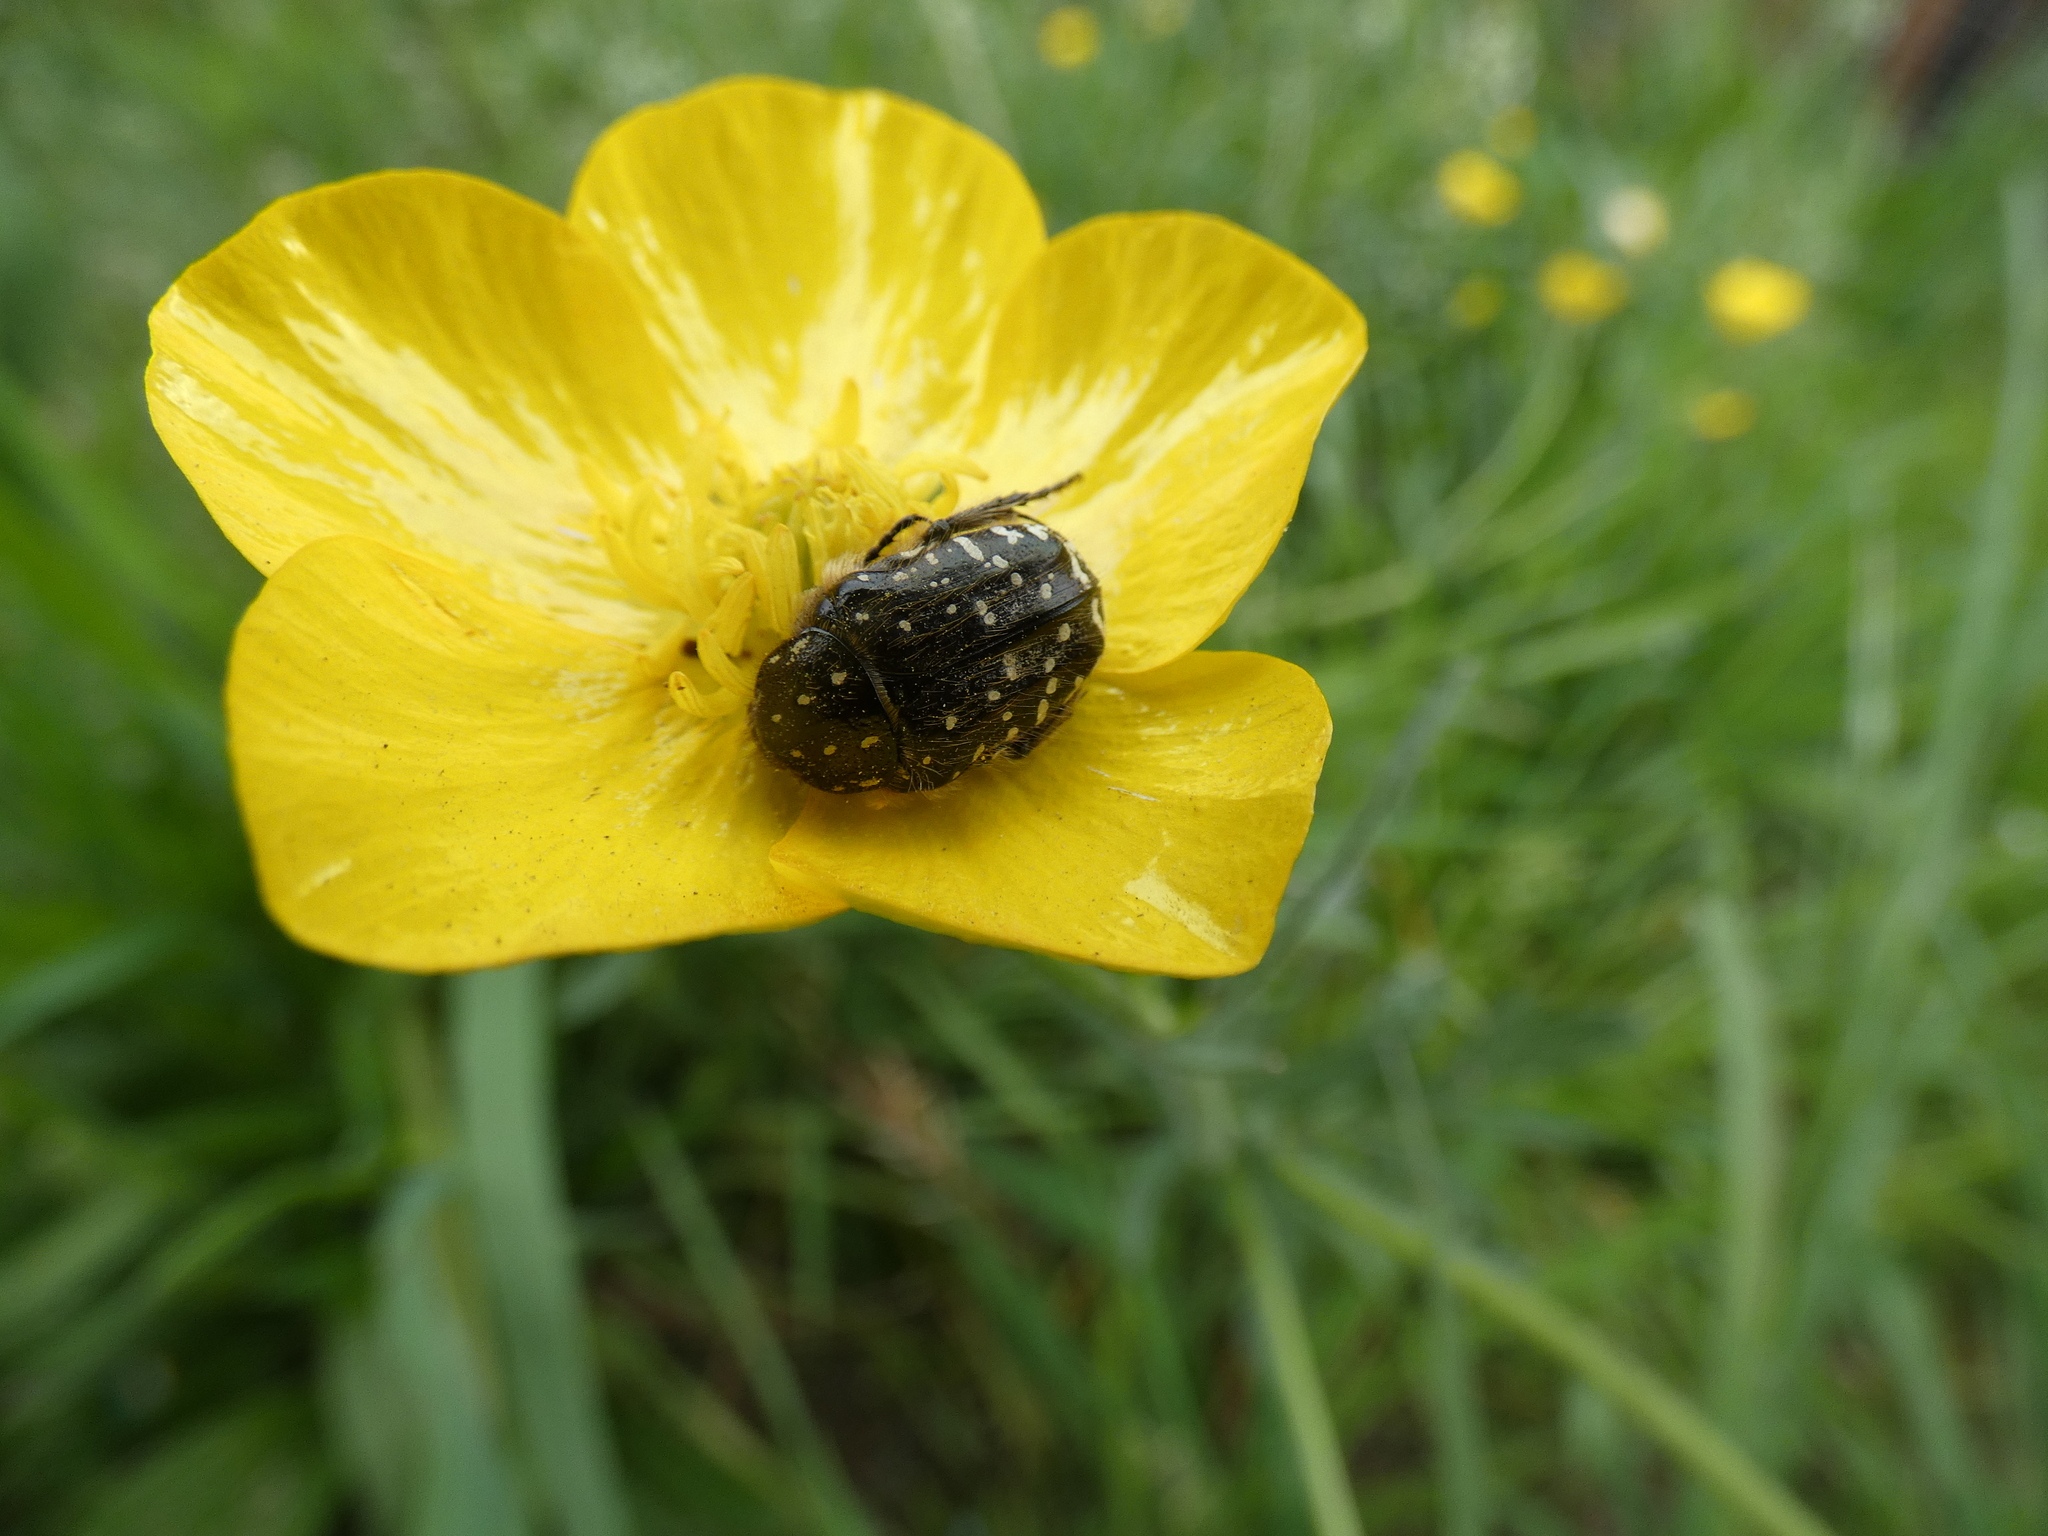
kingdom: Animalia
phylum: Arthropoda
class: Insecta
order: Coleoptera
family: Scarabaeidae
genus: Oxythyrea
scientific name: Oxythyrea funesta
